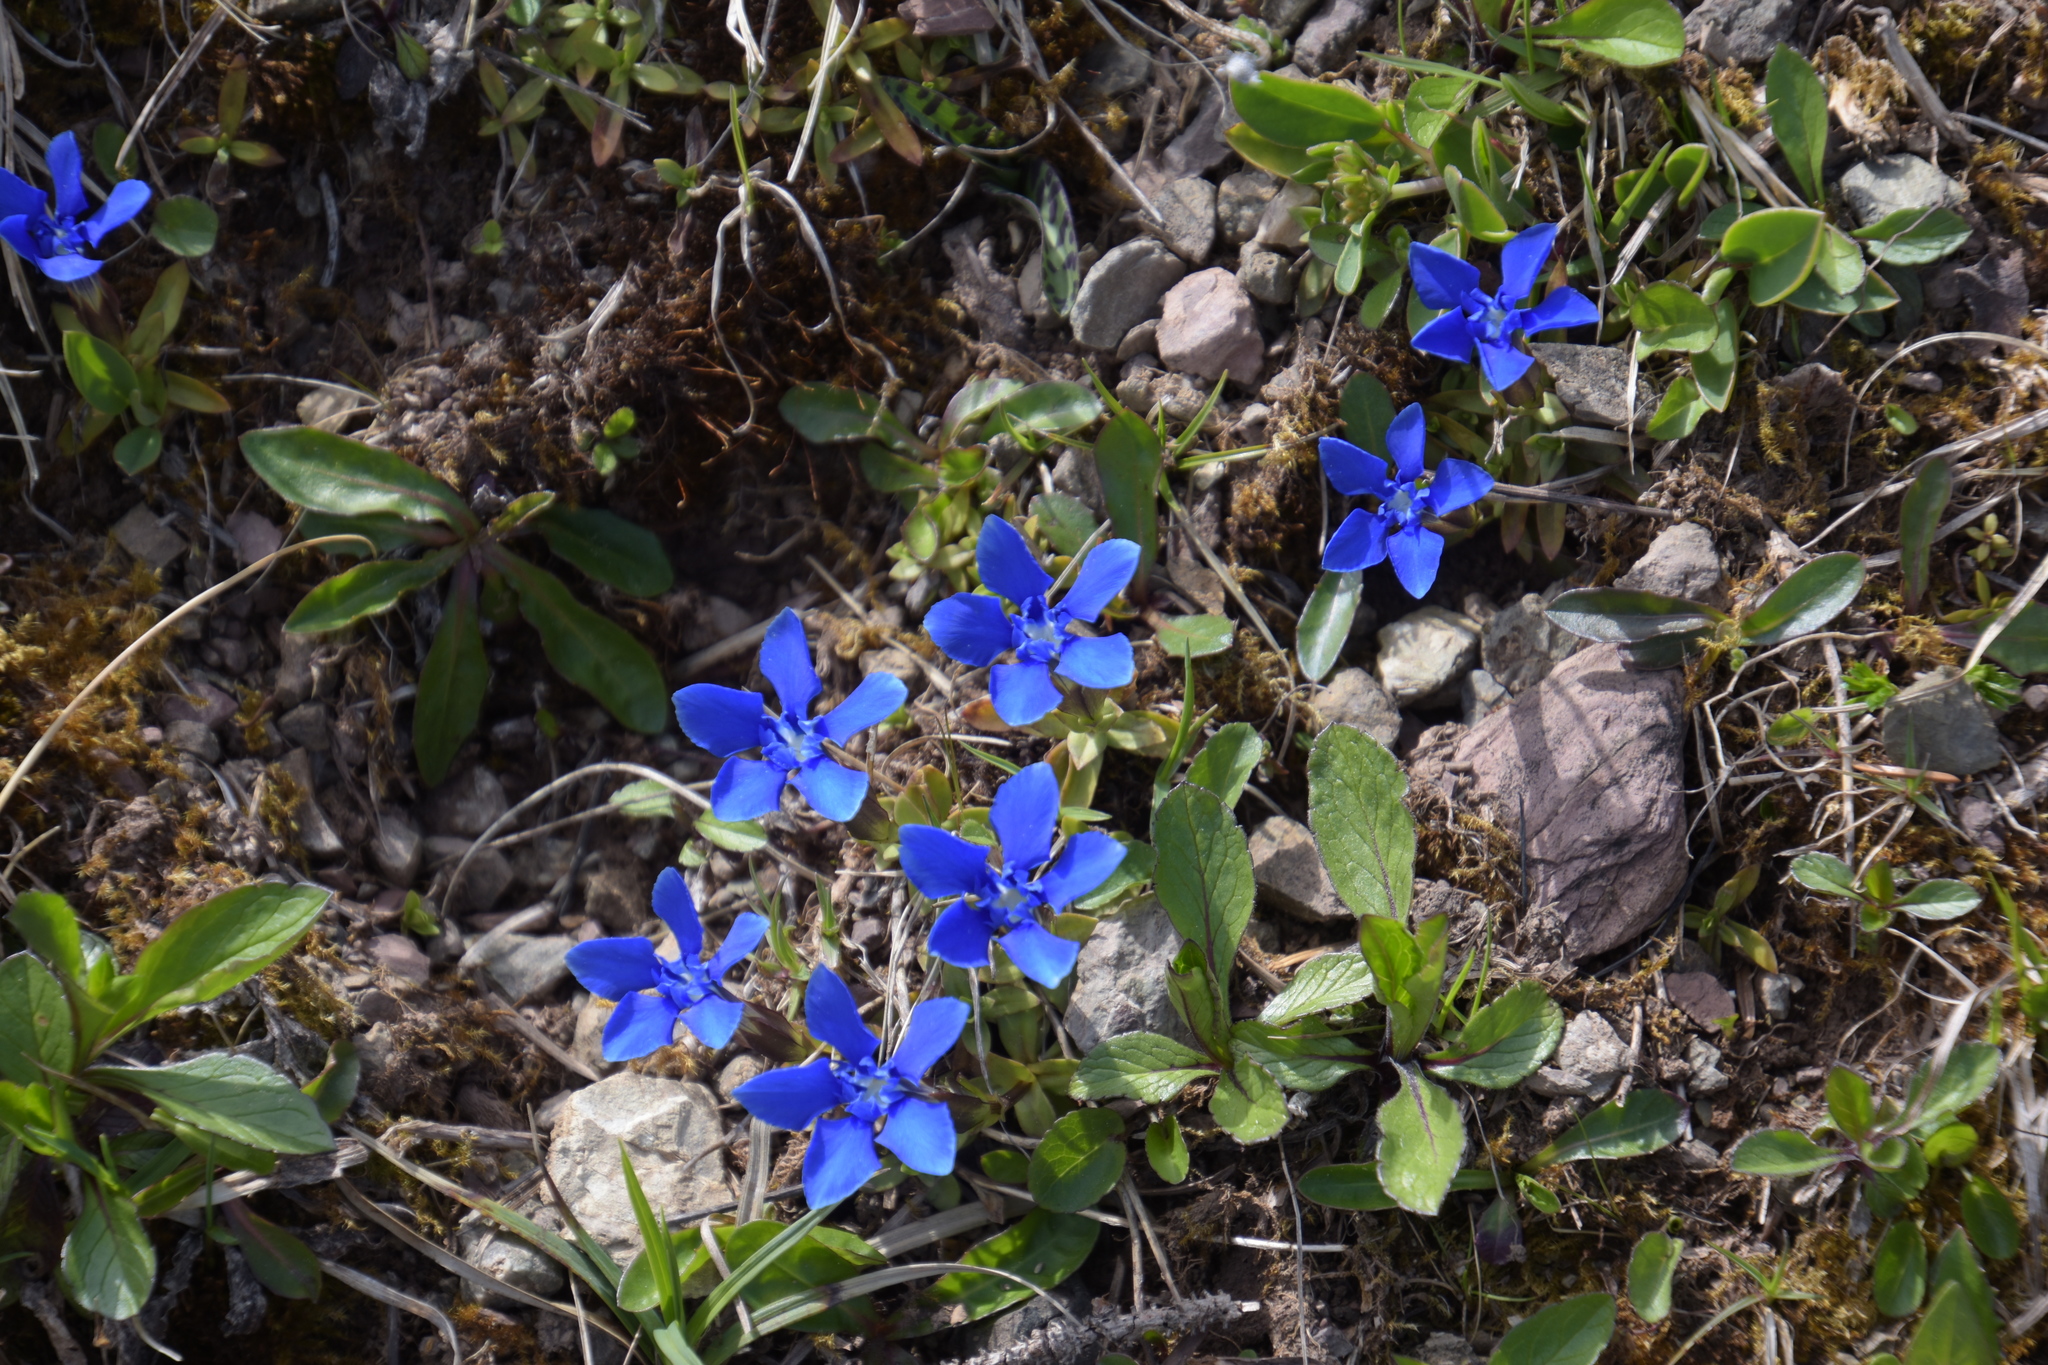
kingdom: Plantae
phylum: Tracheophyta
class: Magnoliopsida
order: Gentianales
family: Gentianaceae
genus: Gentiana
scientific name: Gentiana verna
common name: Spring gentian
